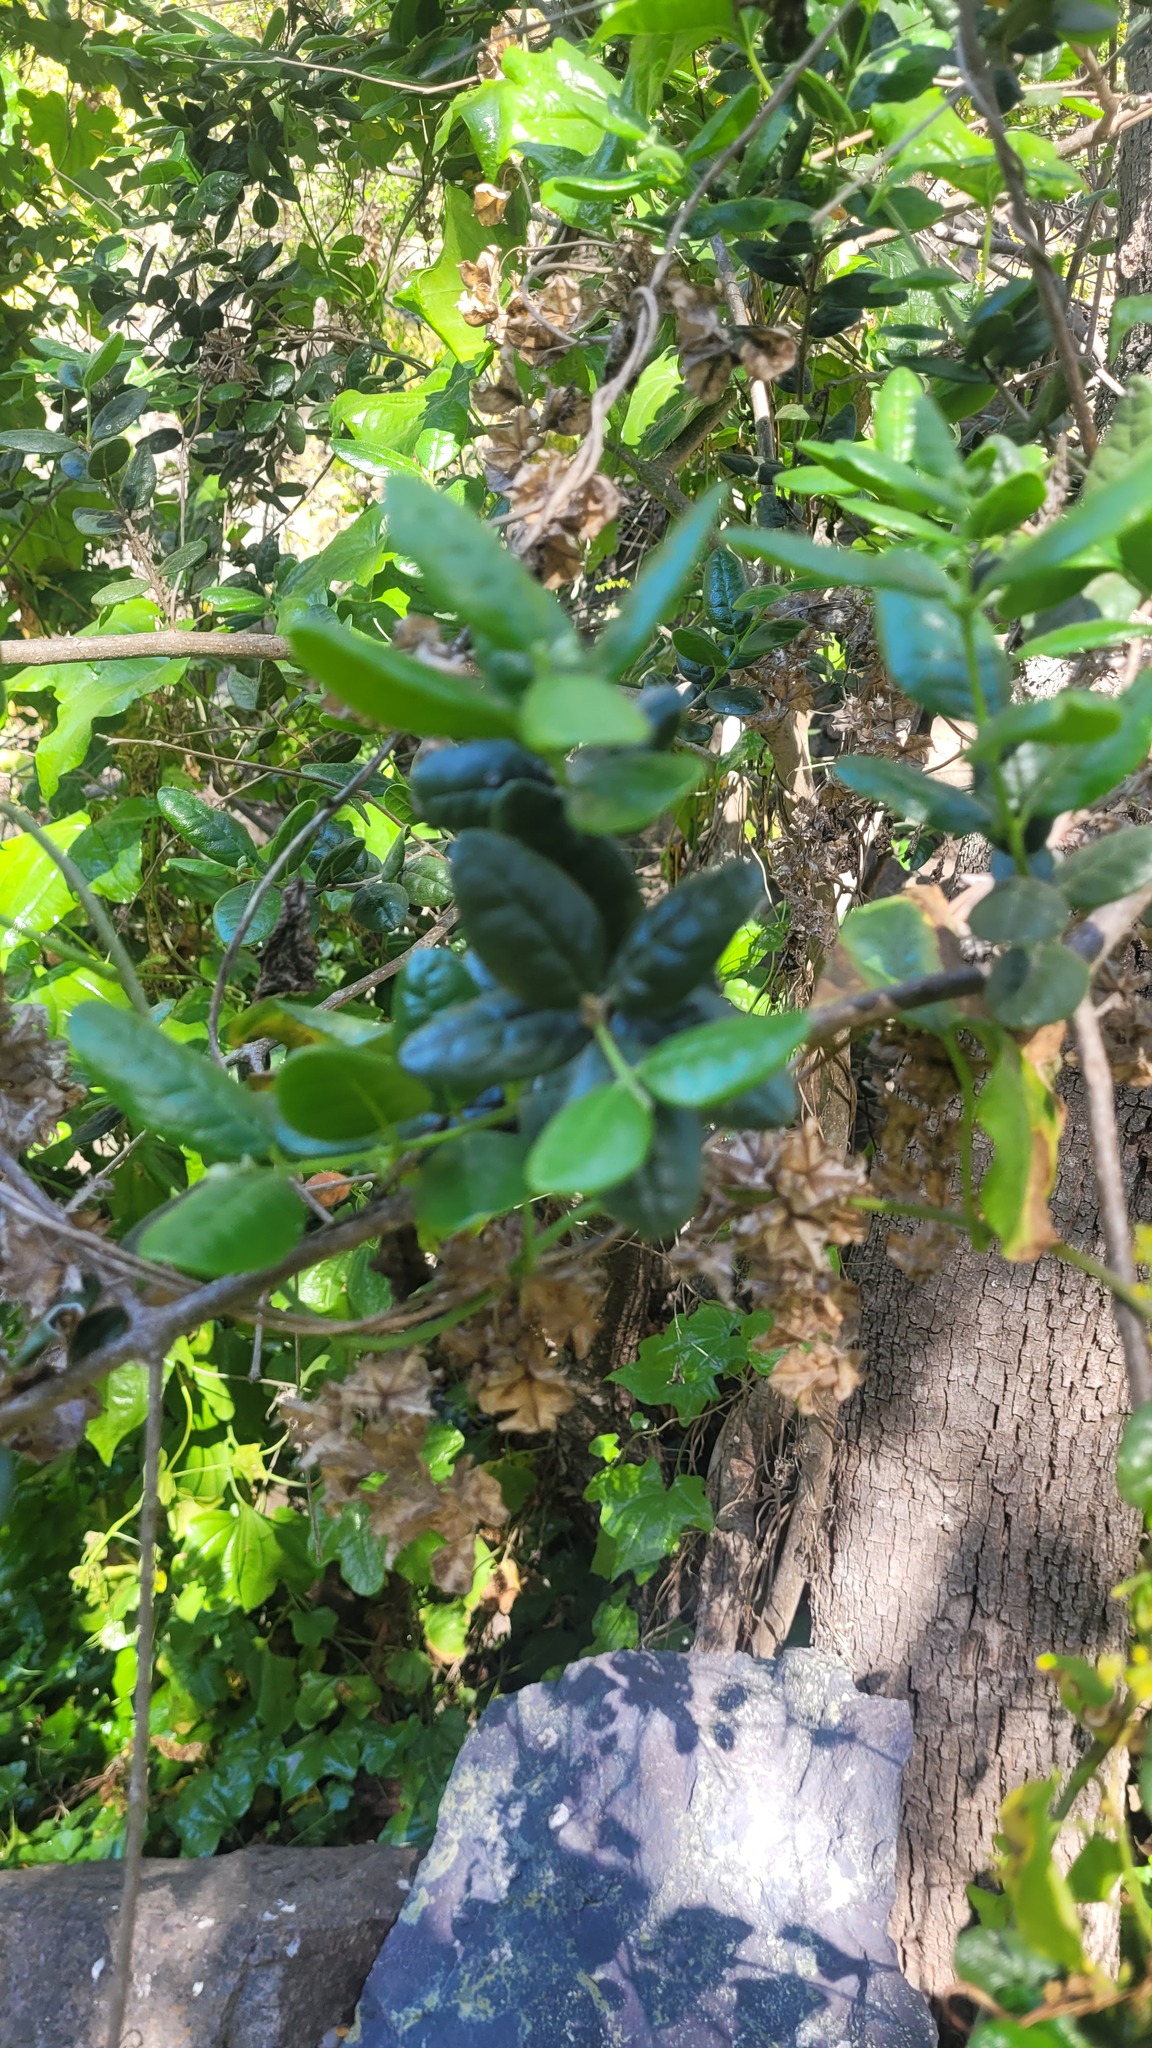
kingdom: Plantae
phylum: Tracheophyta
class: Magnoliopsida
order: Laurales
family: Monimiaceae
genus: Peumus
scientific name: Peumus boldus
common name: Boldo
